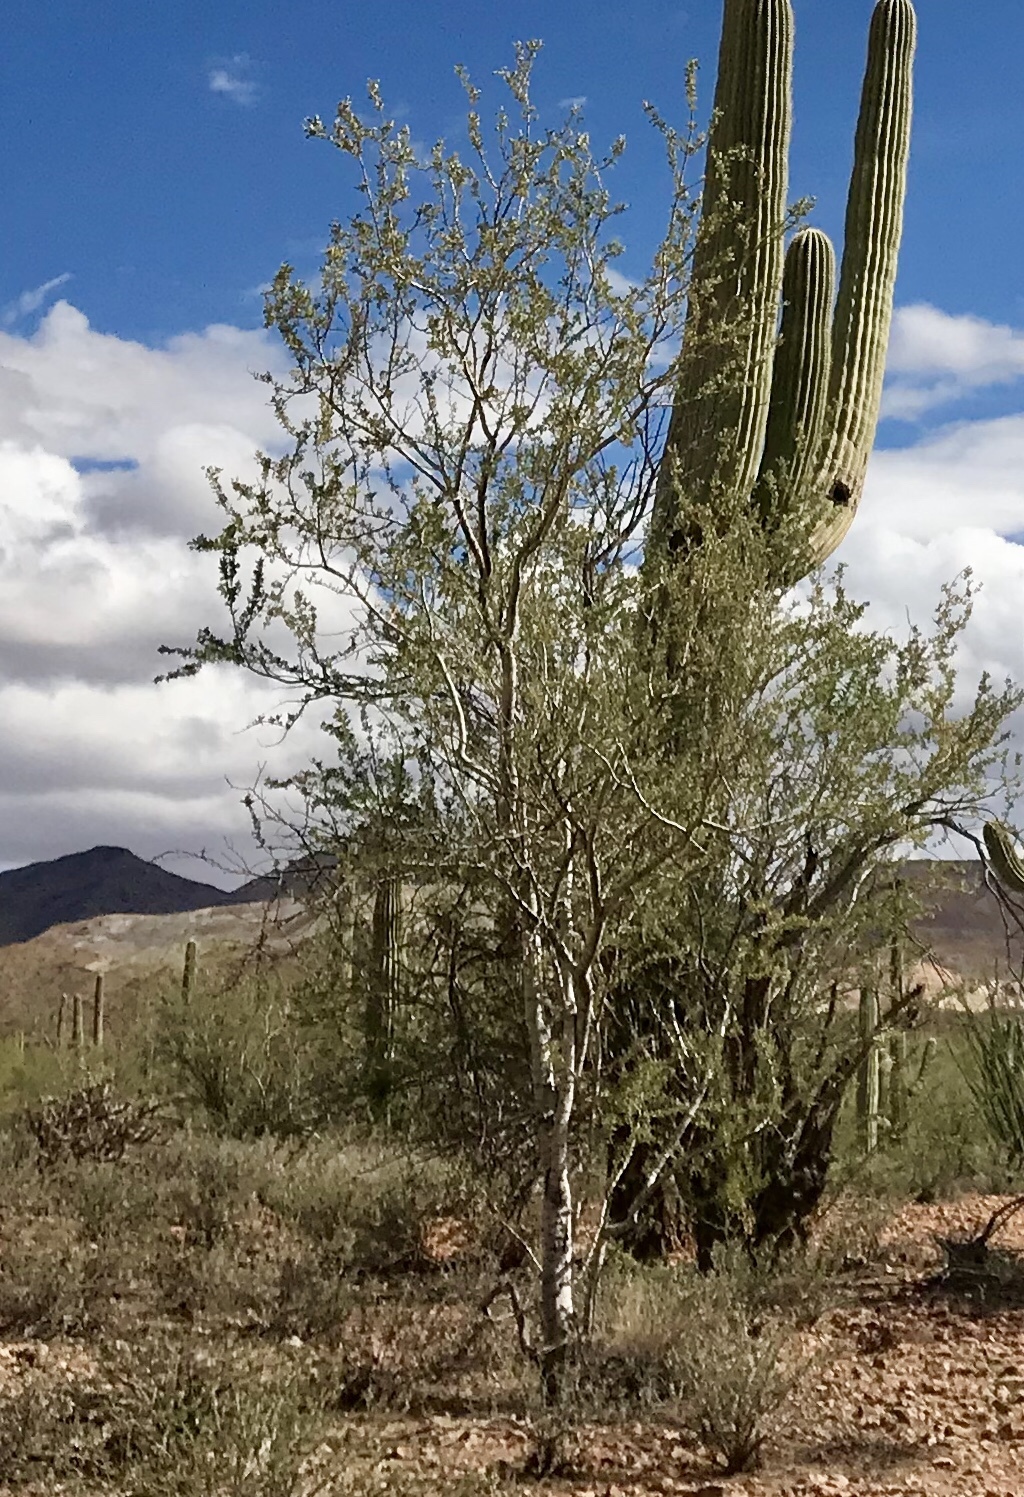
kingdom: Plantae
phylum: Tracheophyta
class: Magnoliopsida
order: Fabales
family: Fabaceae
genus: Olneya
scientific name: Olneya tesota
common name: Desert ironwood
